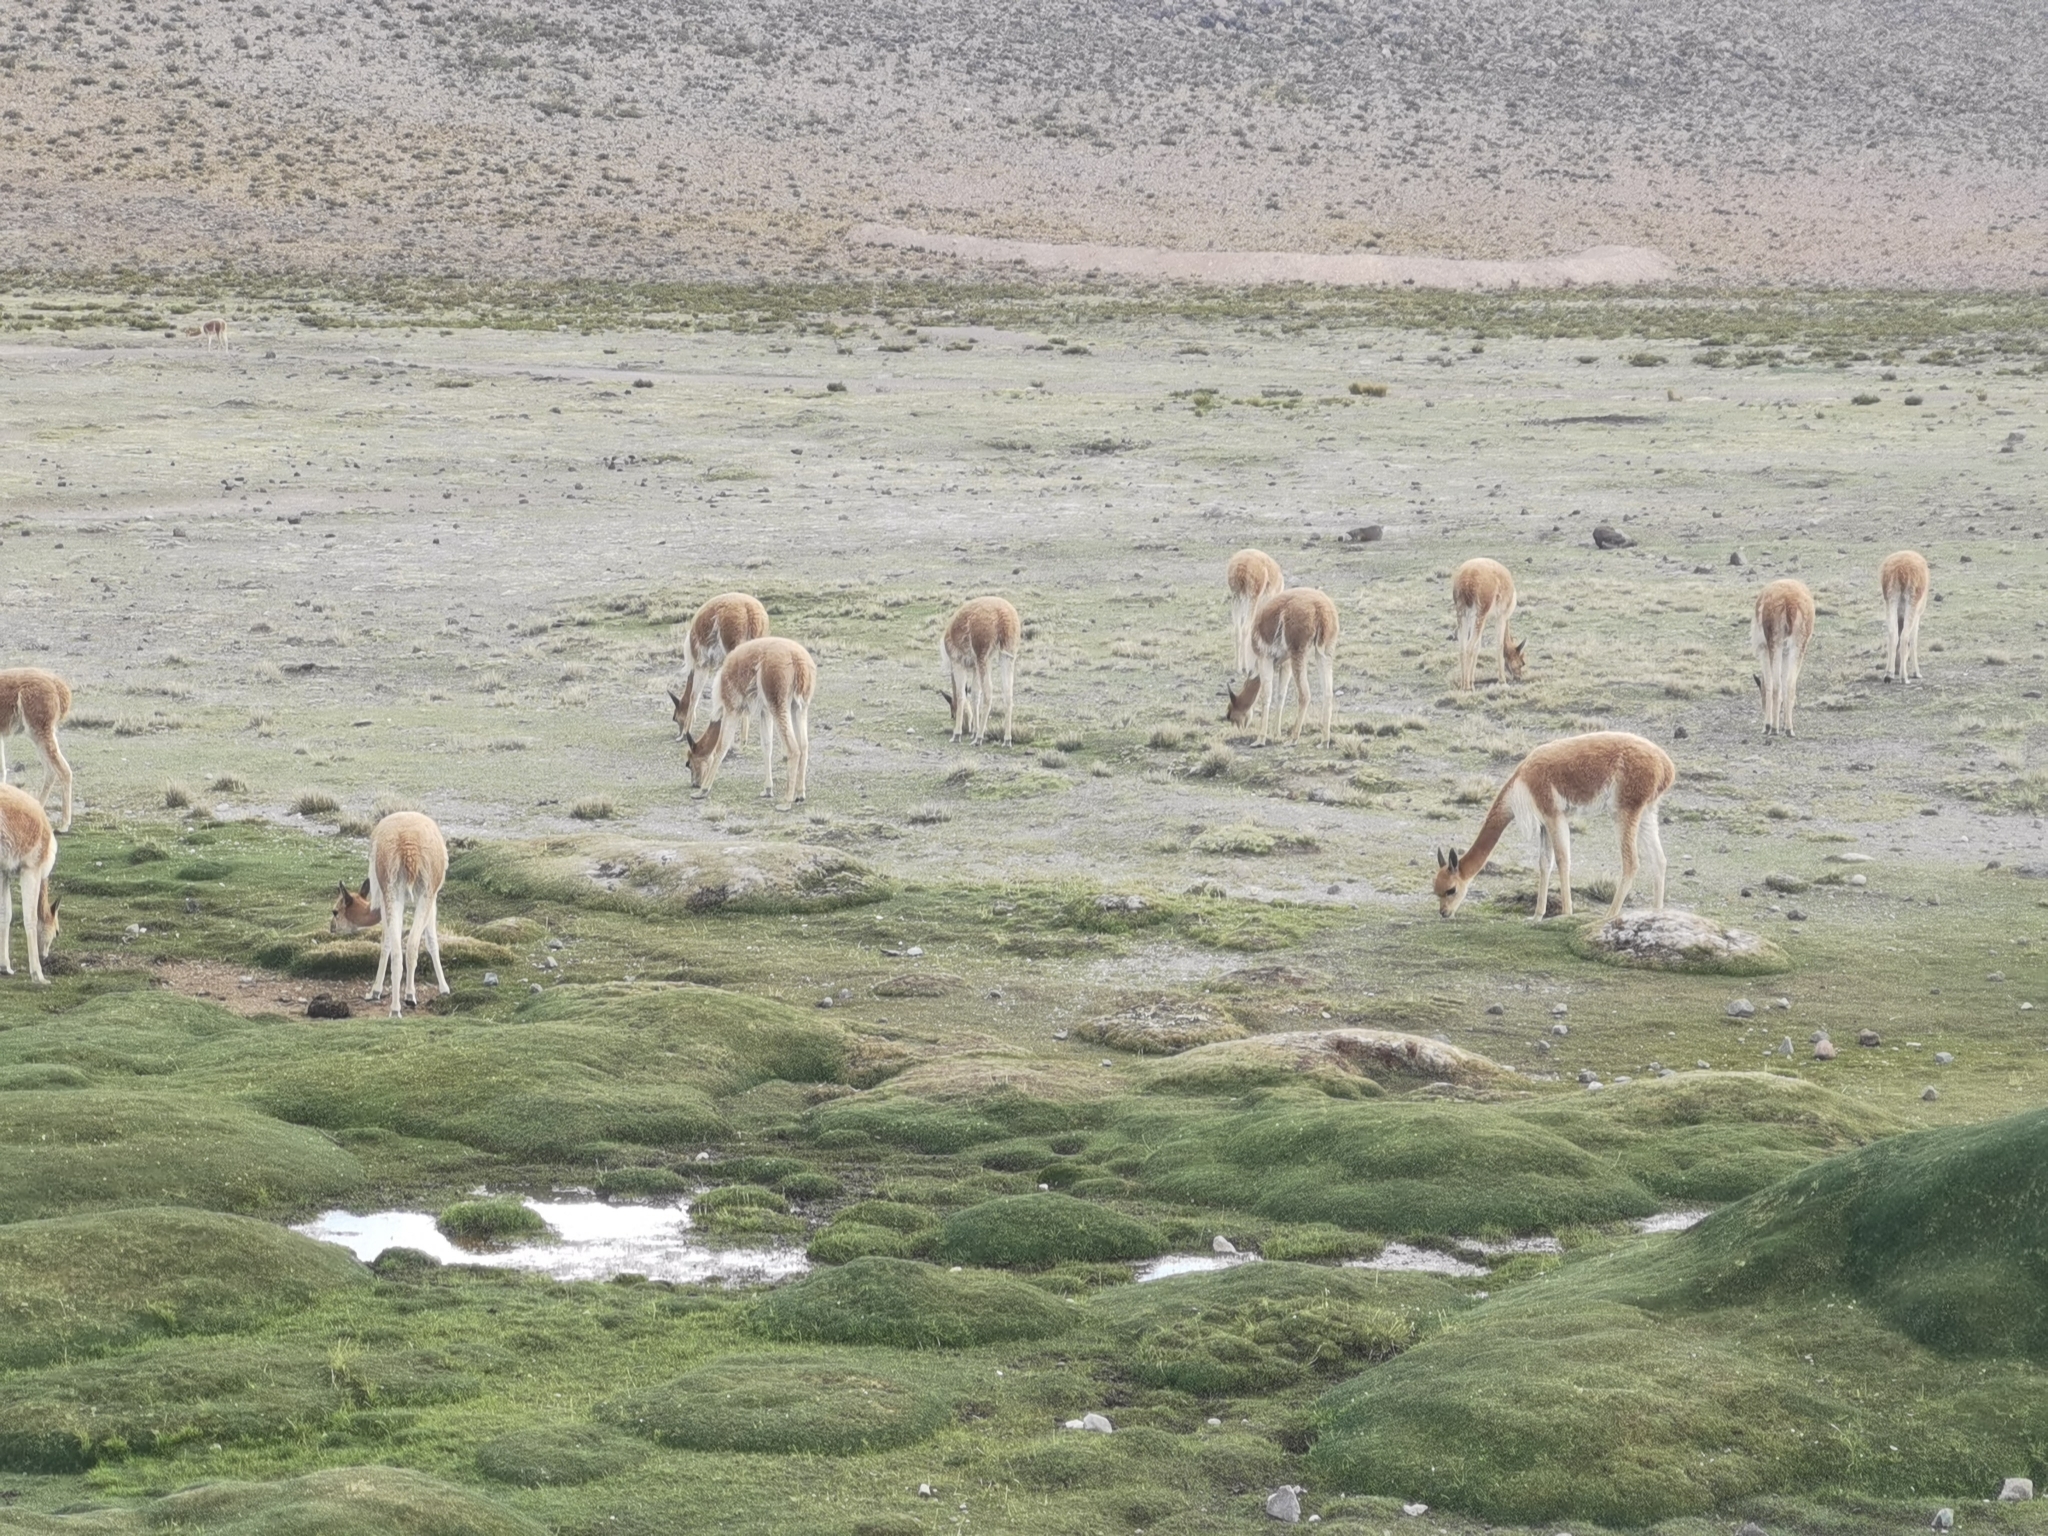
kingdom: Animalia
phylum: Chordata
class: Mammalia
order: Artiodactyla
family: Camelidae
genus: Vicugna
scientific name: Vicugna vicugna
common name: Vicugna
